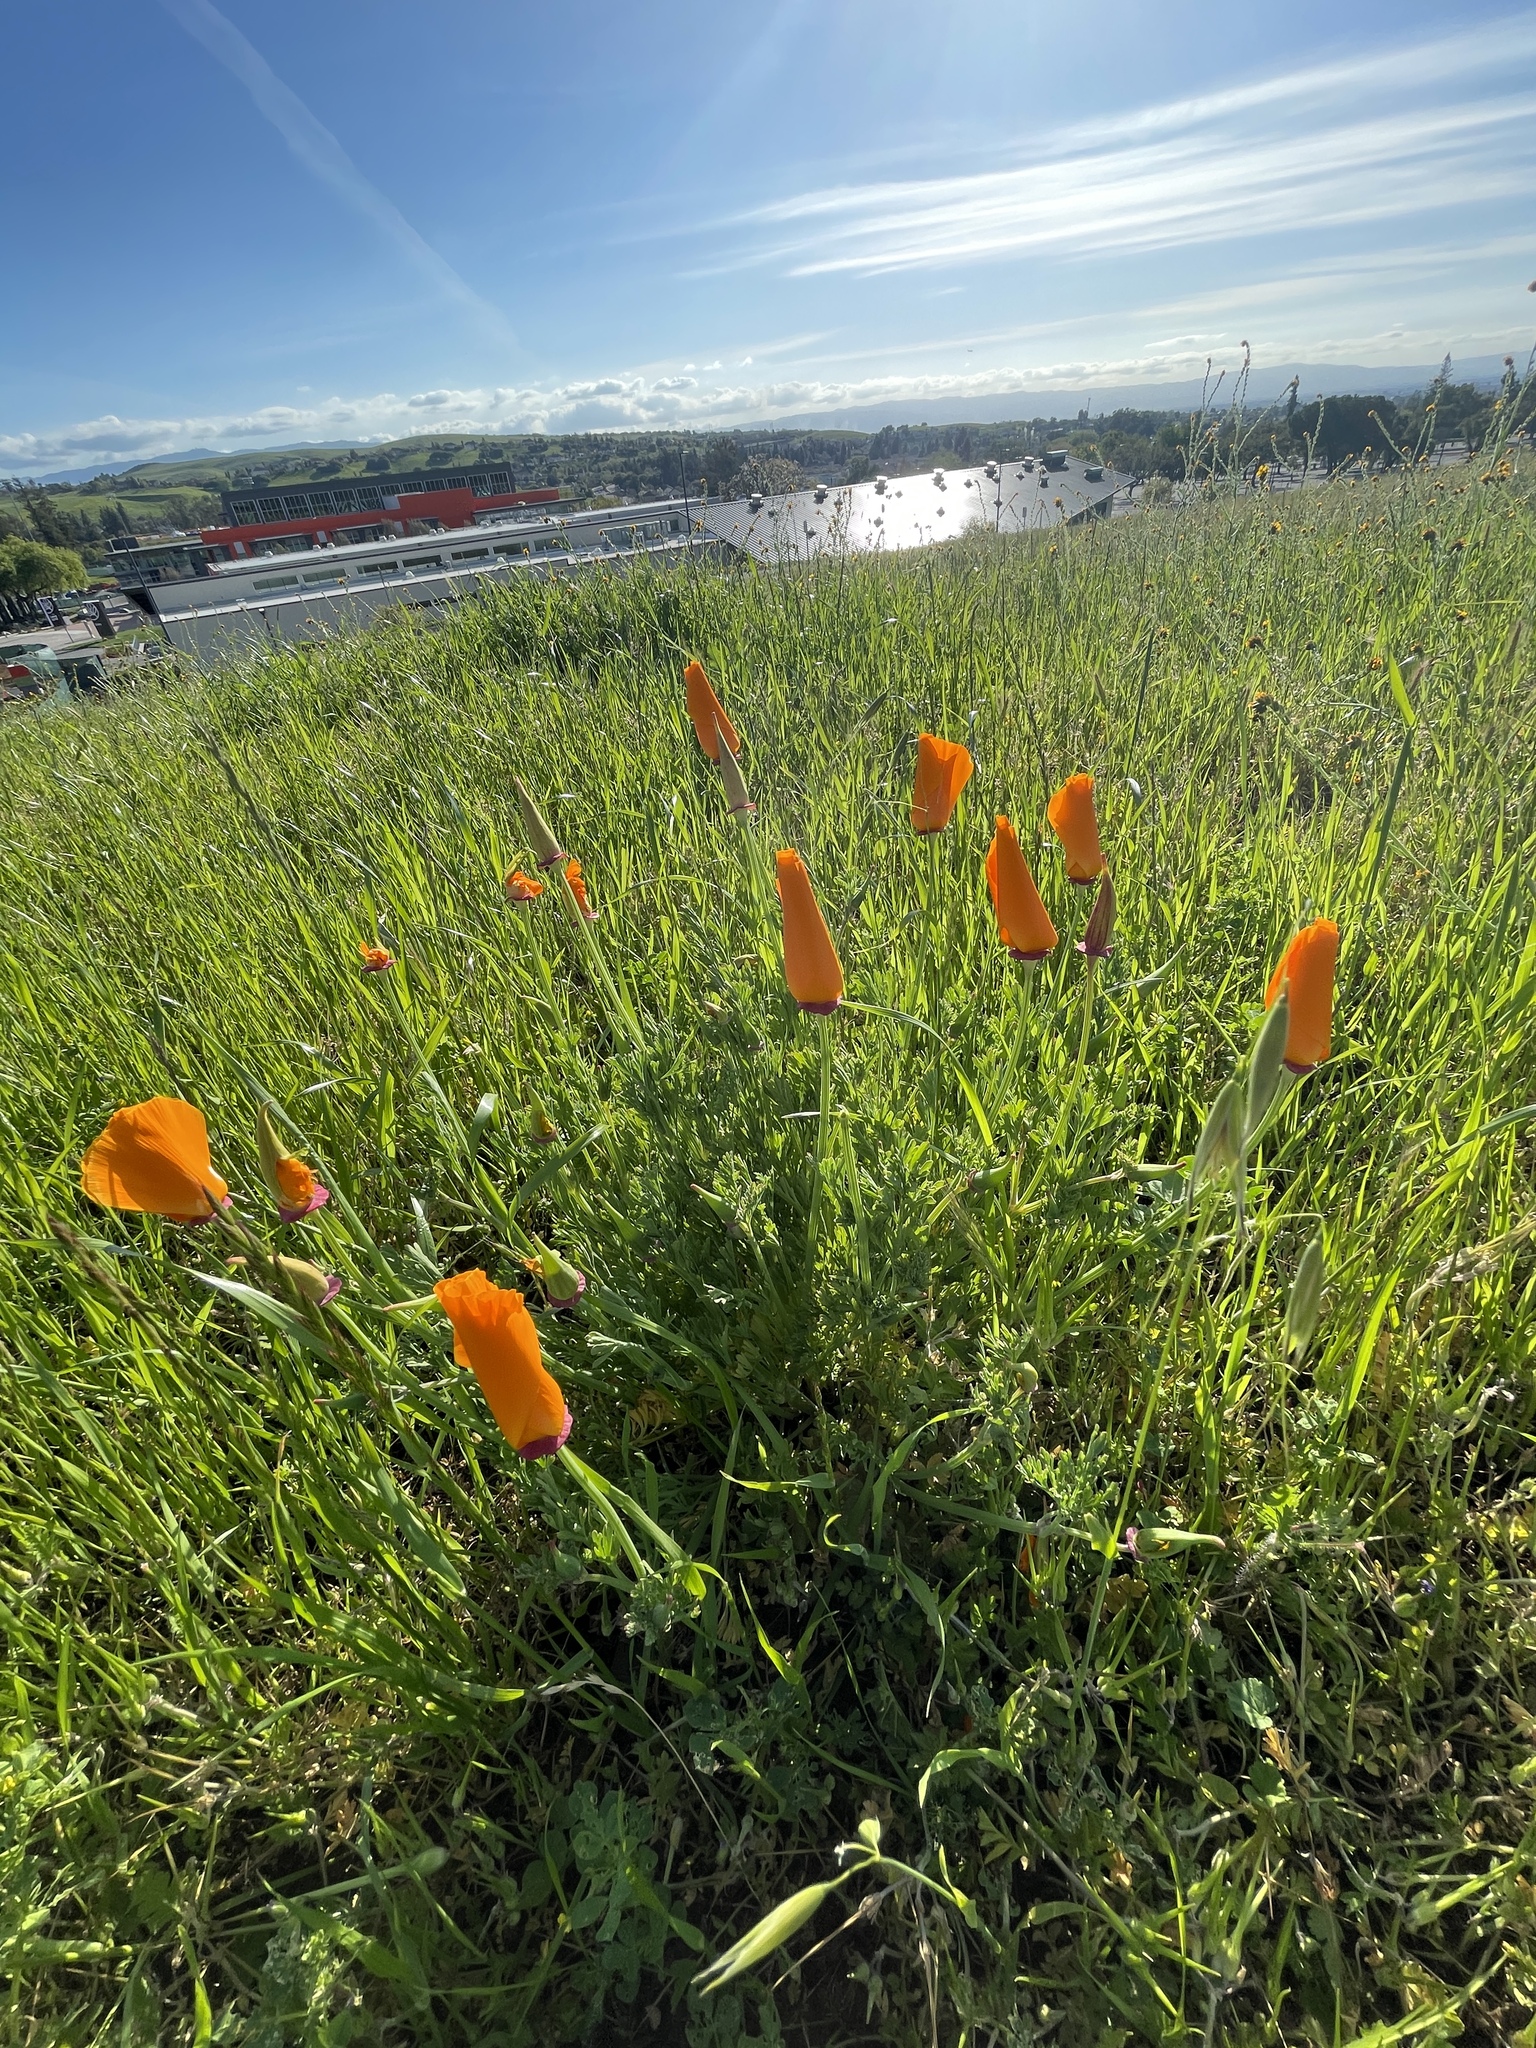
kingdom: Plantae
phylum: Tracheophyta
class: Magnoliopsida
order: Ranunculales
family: Papaveraceae
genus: Eschscholzia
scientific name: Eschscholzia californica
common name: California poppy
